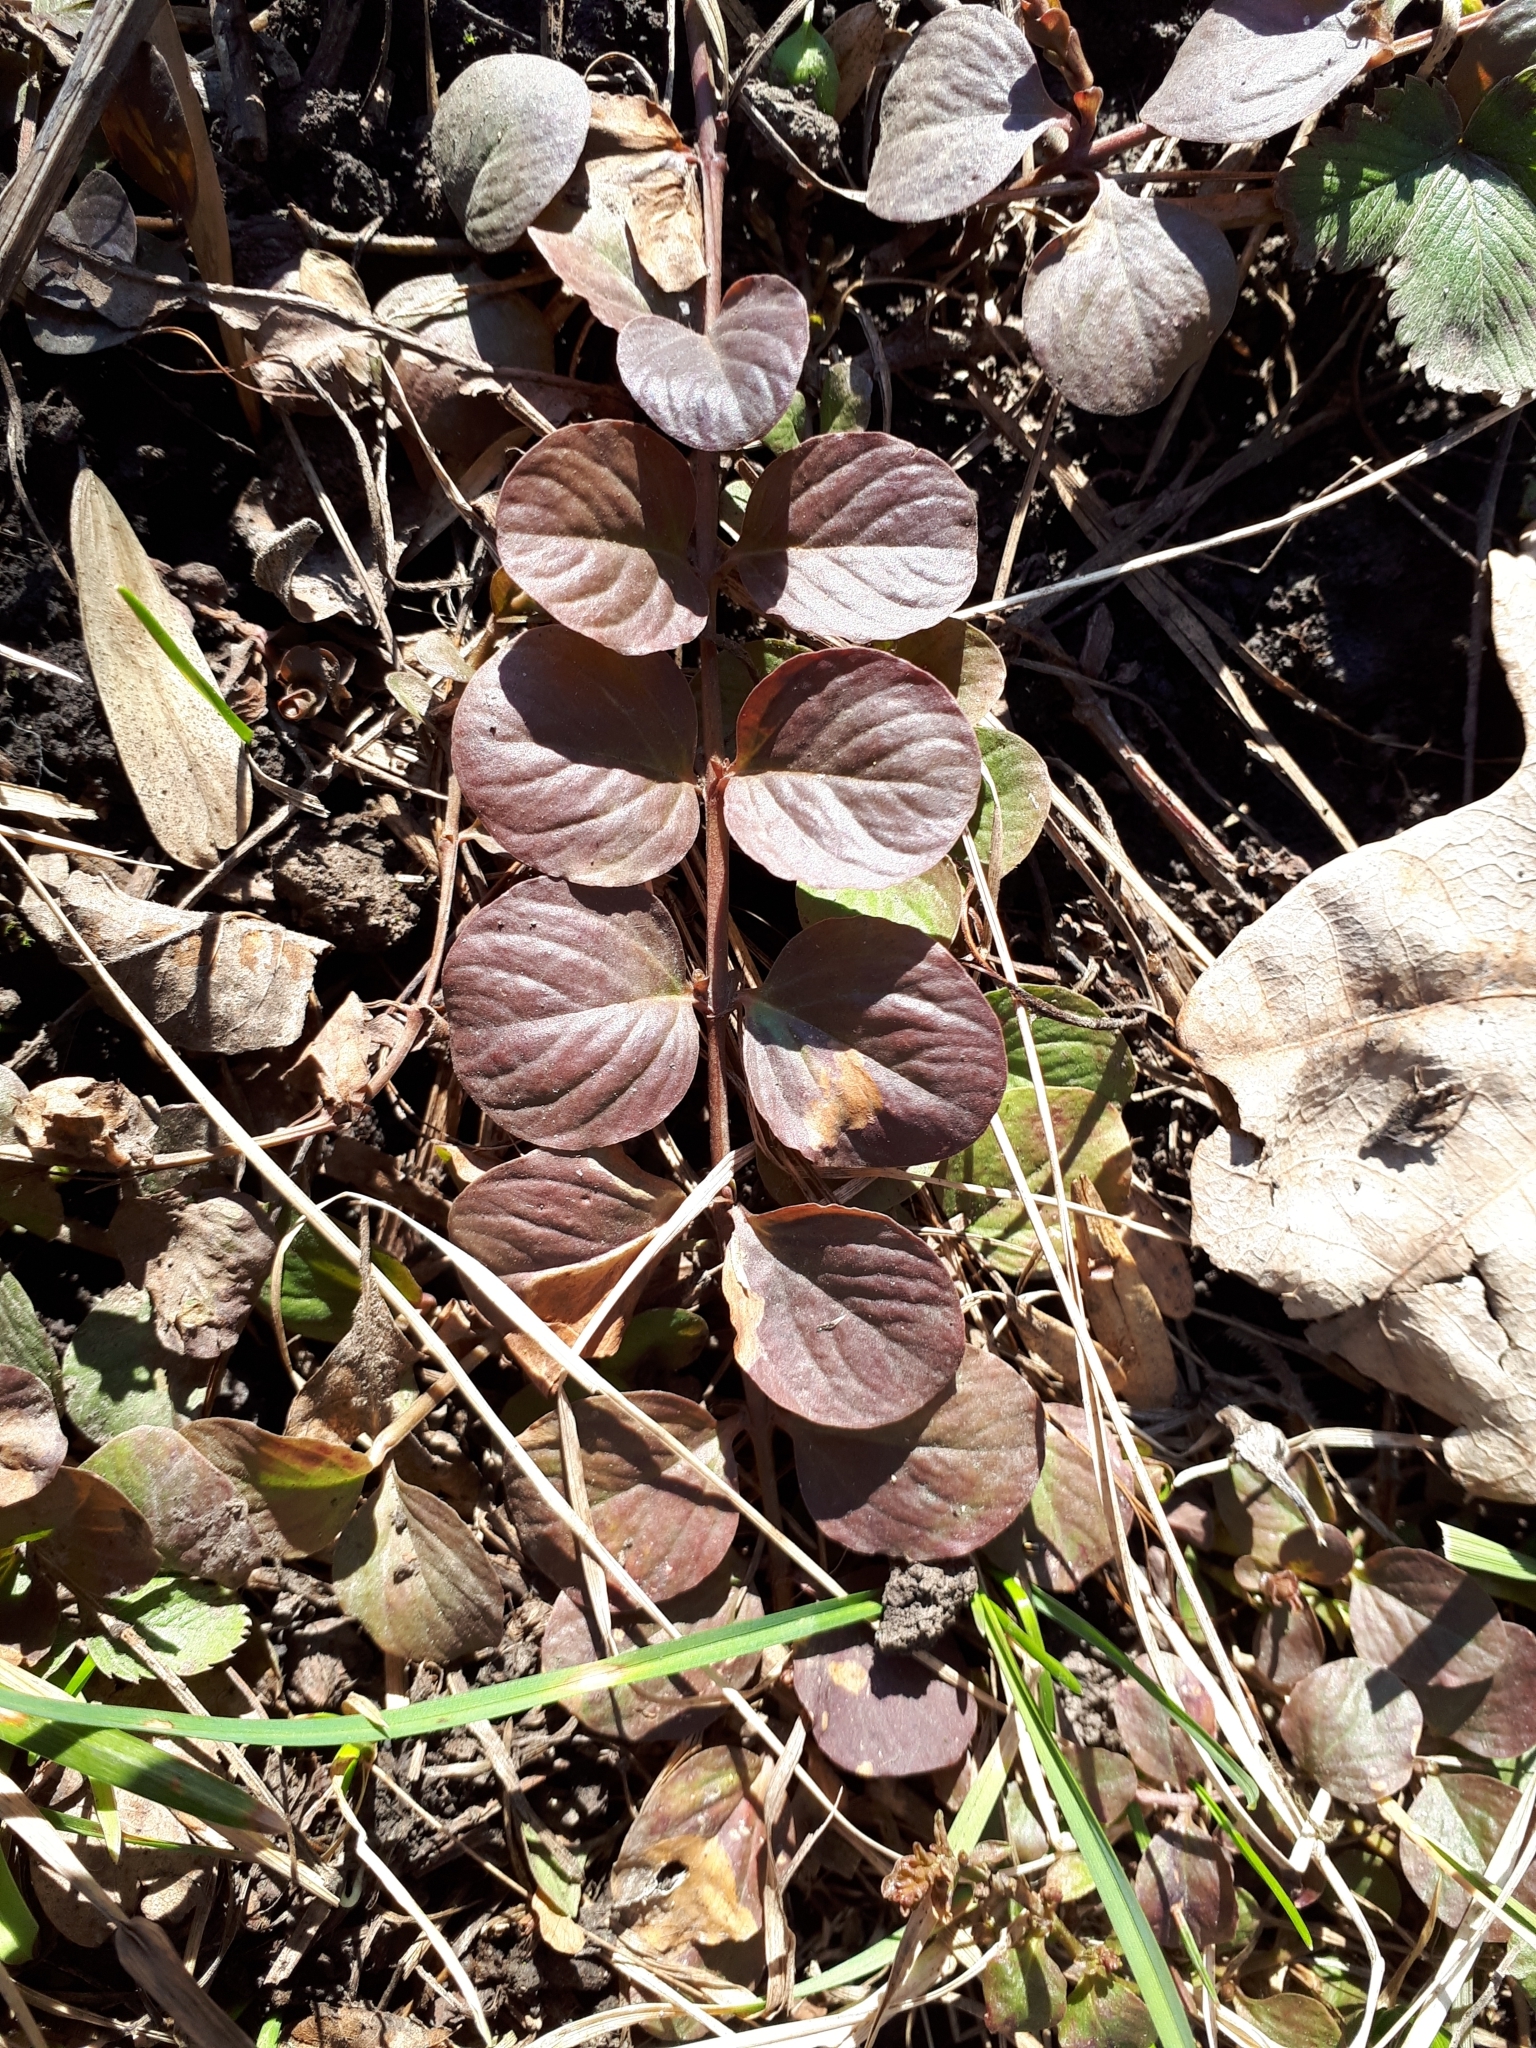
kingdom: Plantae
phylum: Tracheophyta
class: Magnoliopsida
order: Ericales
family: Primulaceae
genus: Lysimachia
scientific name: Lysimachia nummularia
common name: Moneywort
